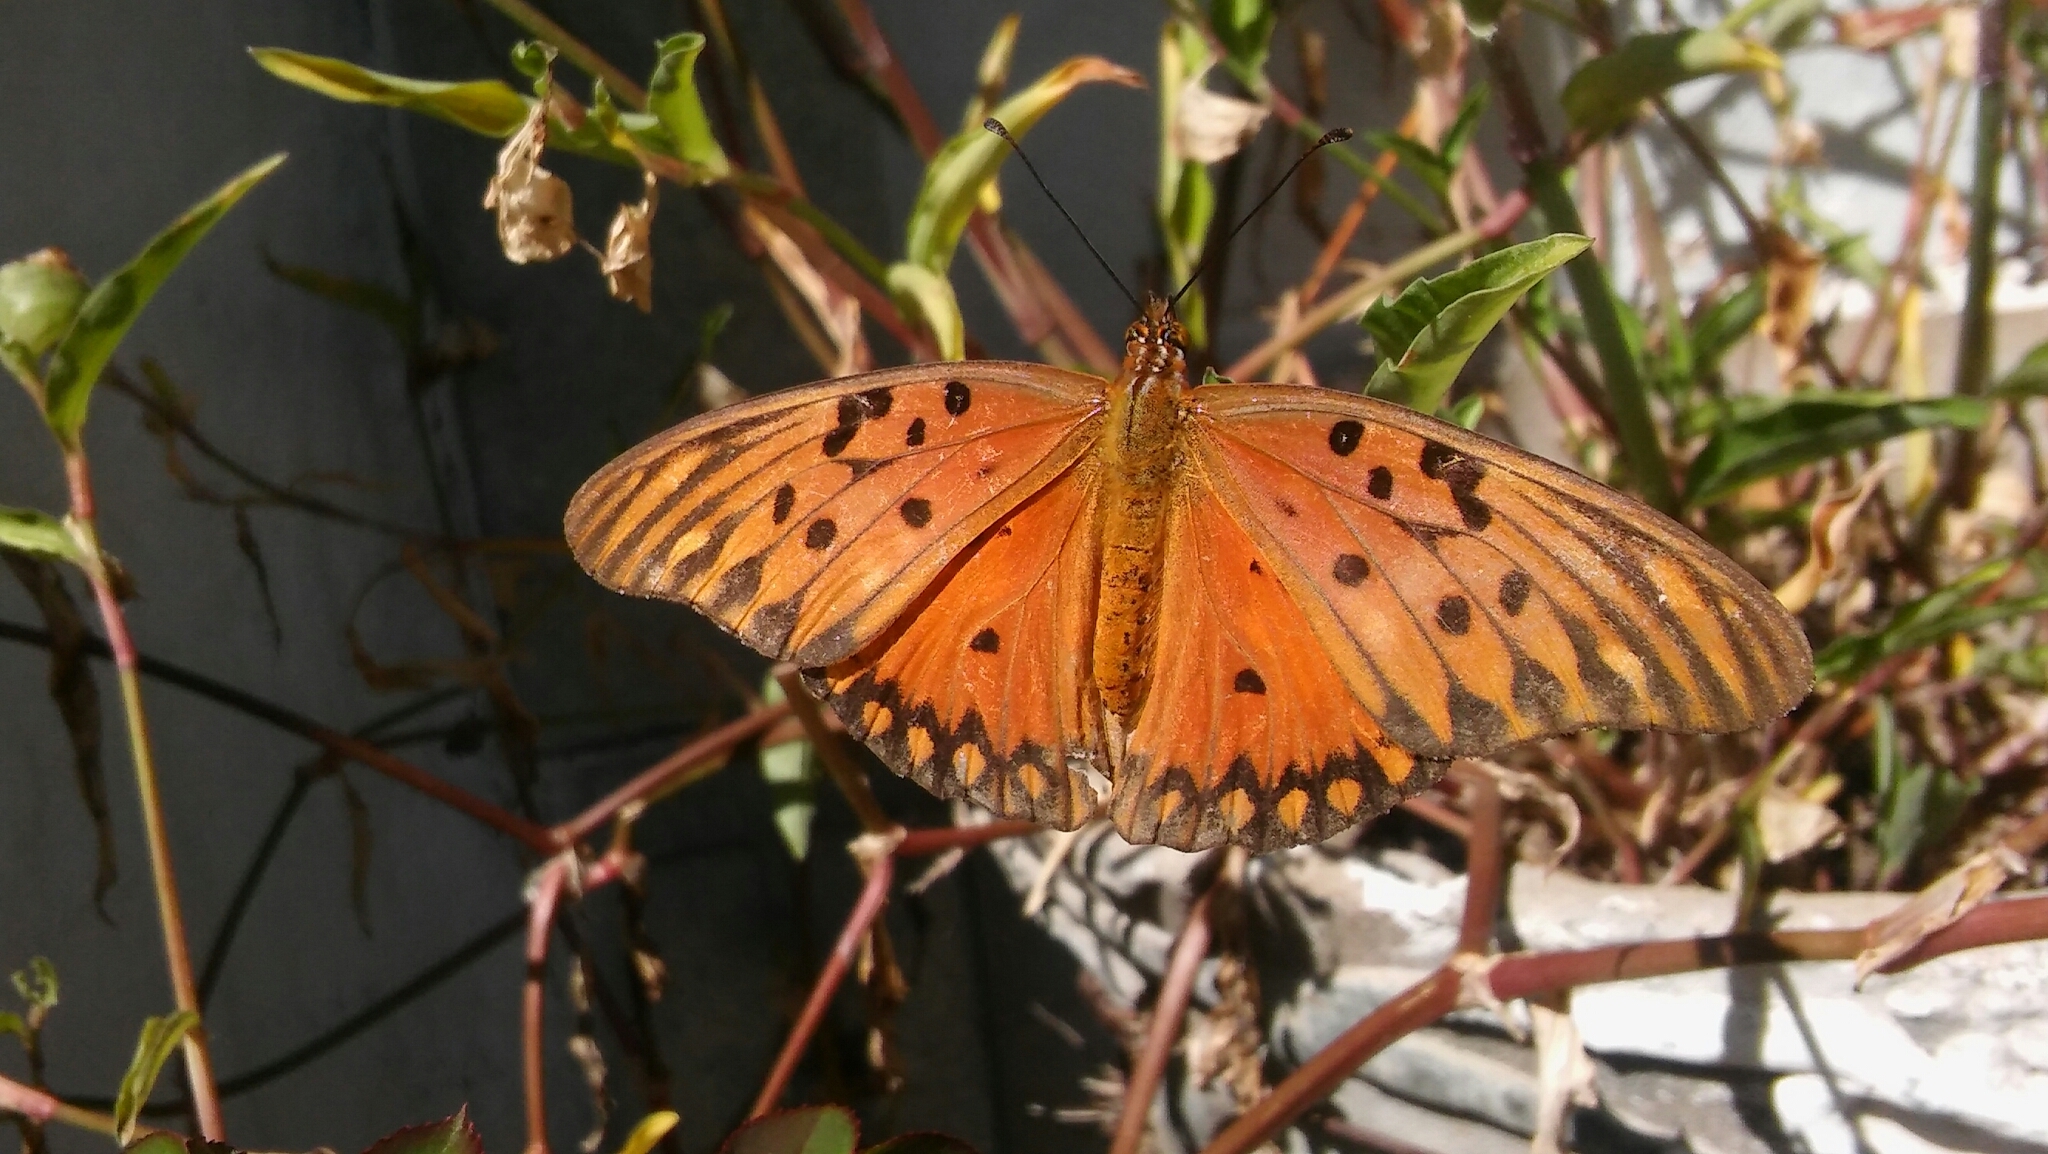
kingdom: Animalia
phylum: Arthropoda
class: Insecta
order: Lepidoptera
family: Nymphalidae
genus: Dione
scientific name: Dione vanillae
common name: Gulf fritillary
